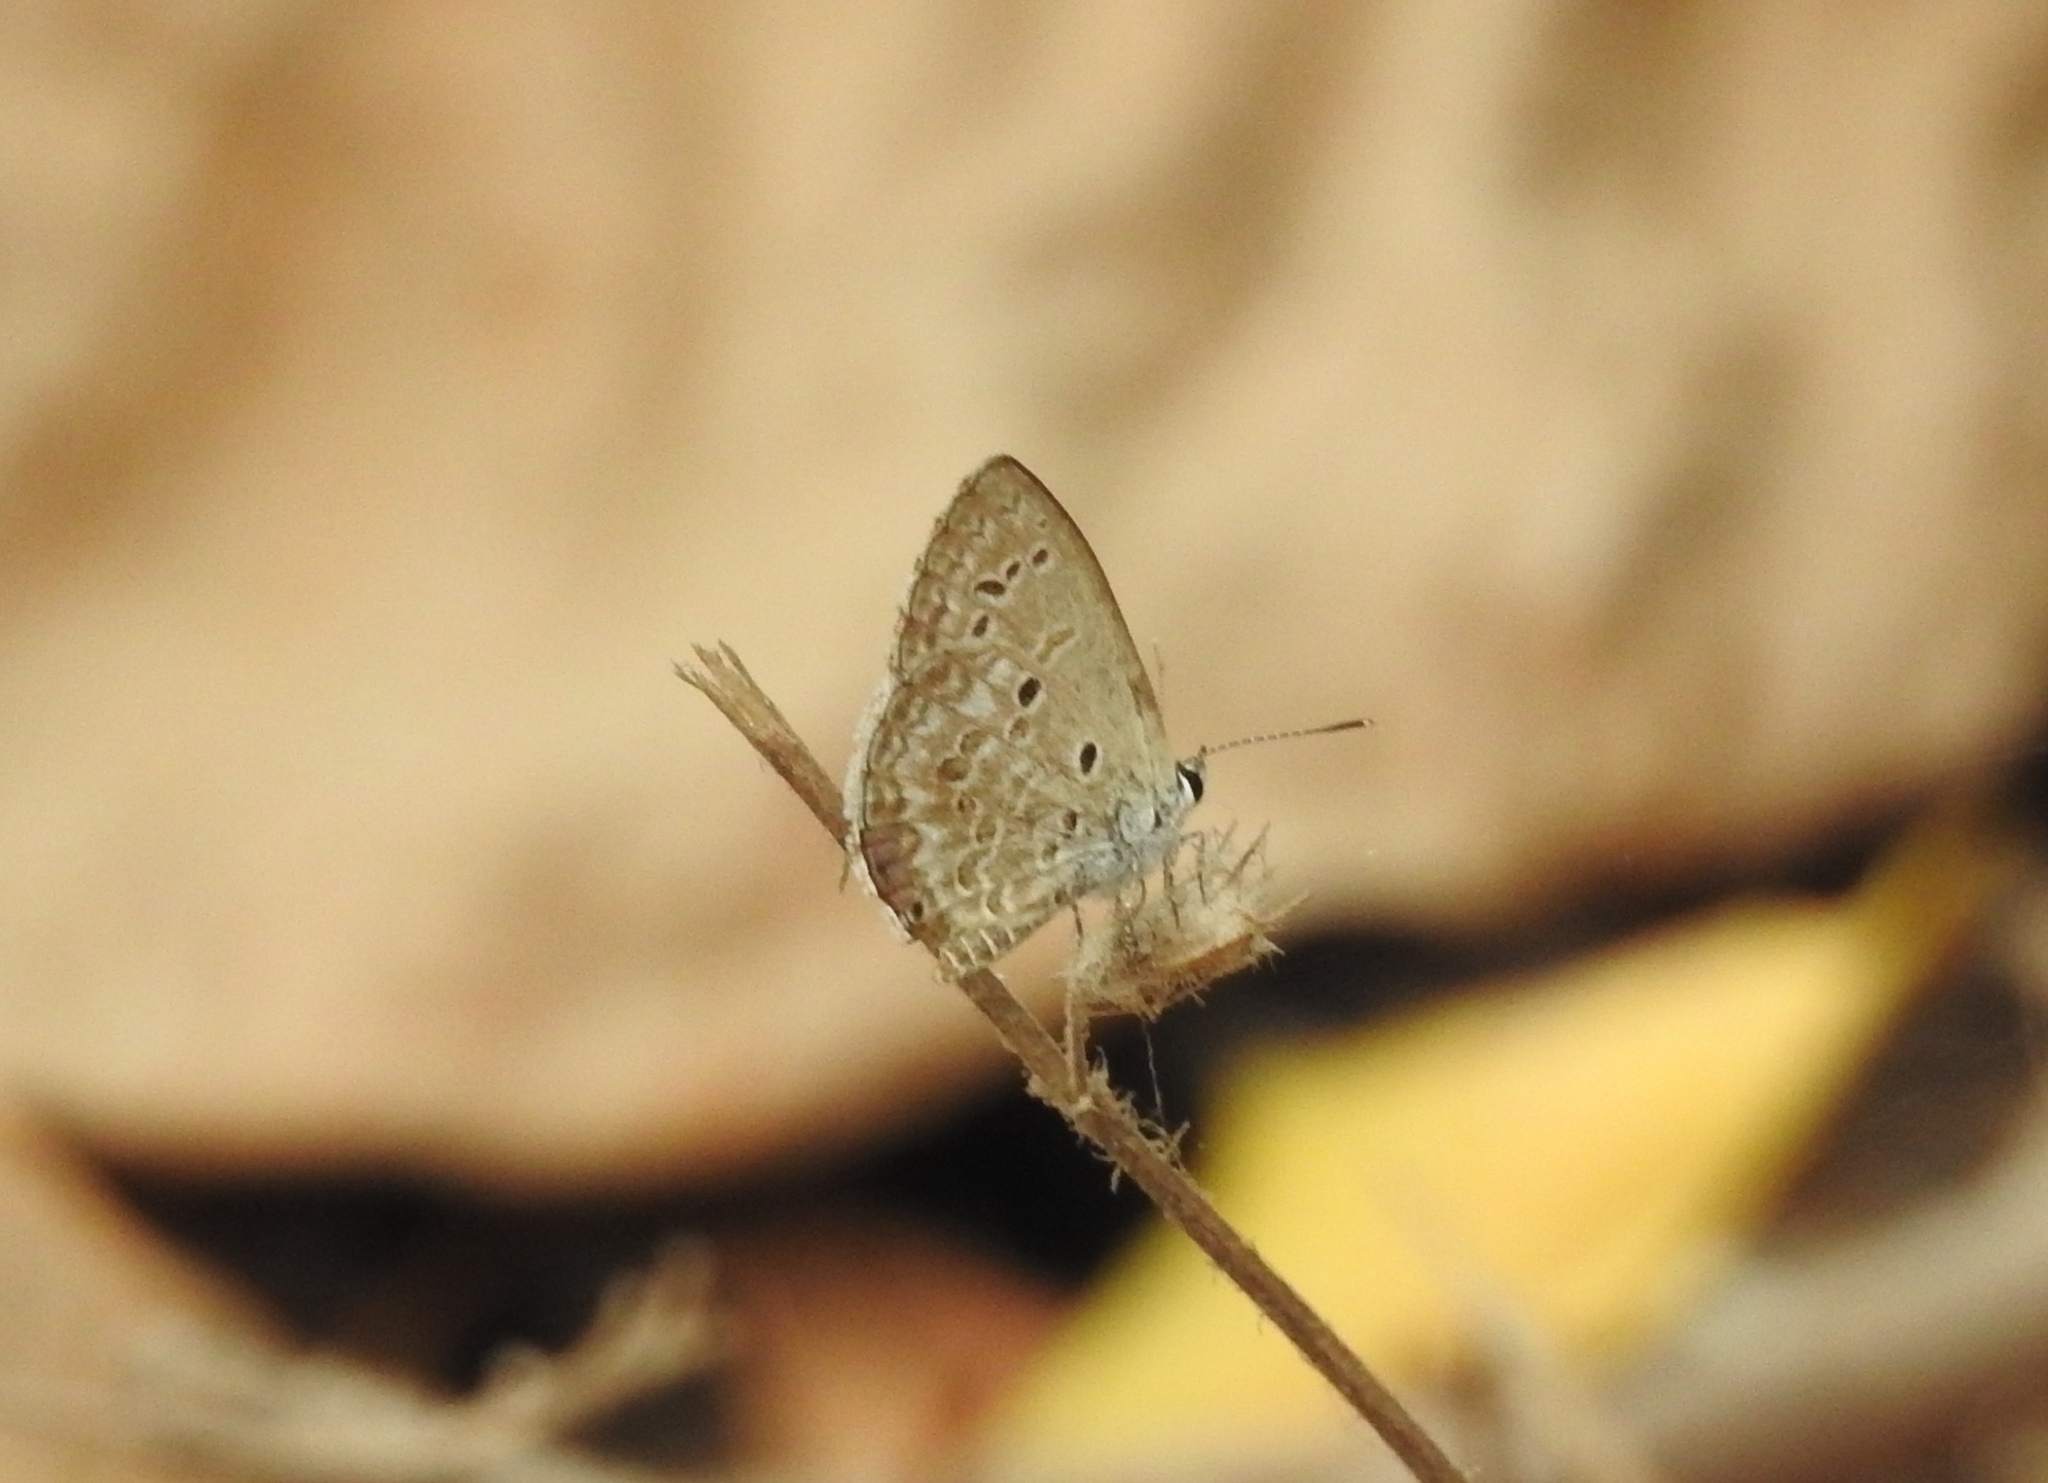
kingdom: Animalia
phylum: Arthropoda
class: Insecta
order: Lepidoptera
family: Lycaenidae
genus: Chilades
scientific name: Chilades laius
